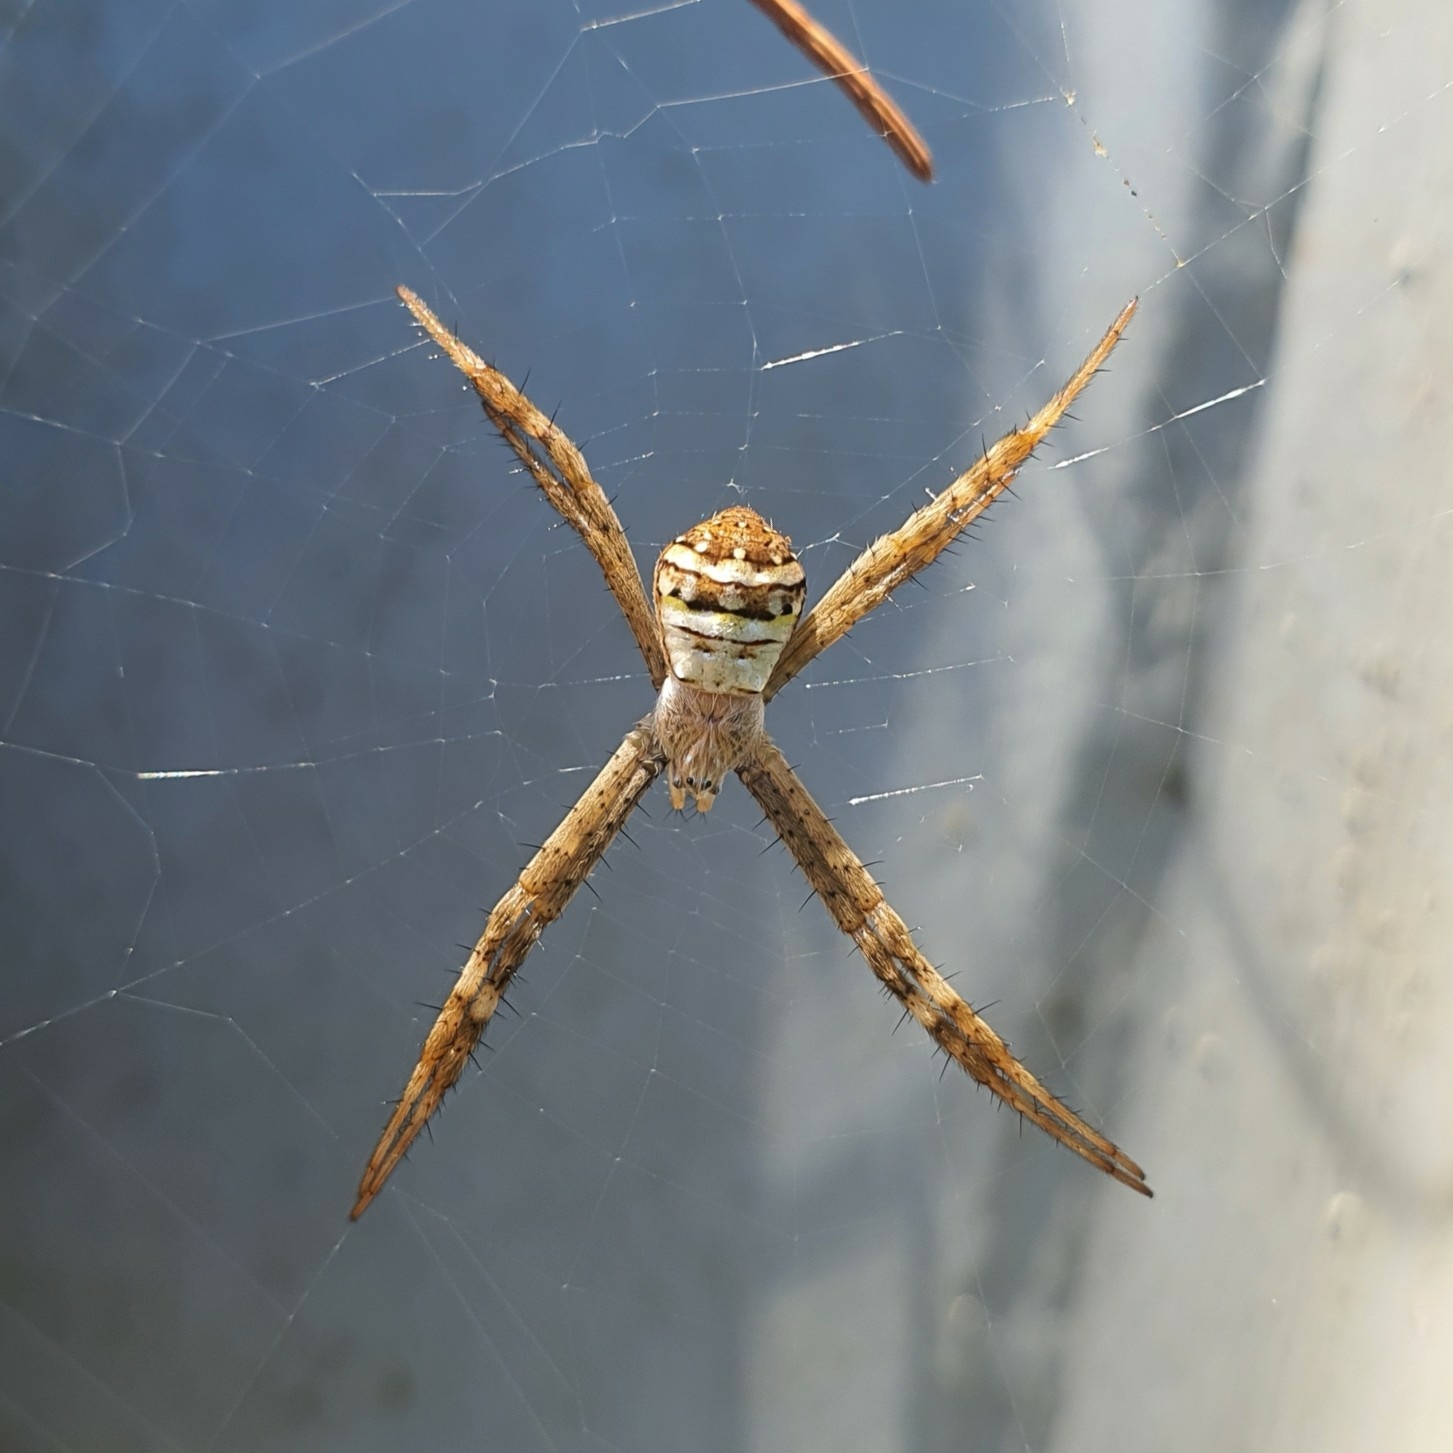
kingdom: Animalia
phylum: Arthropoda
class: Arachnida
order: Araneae
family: Araneidae
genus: Argiope
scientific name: Argiope keyserlingi
